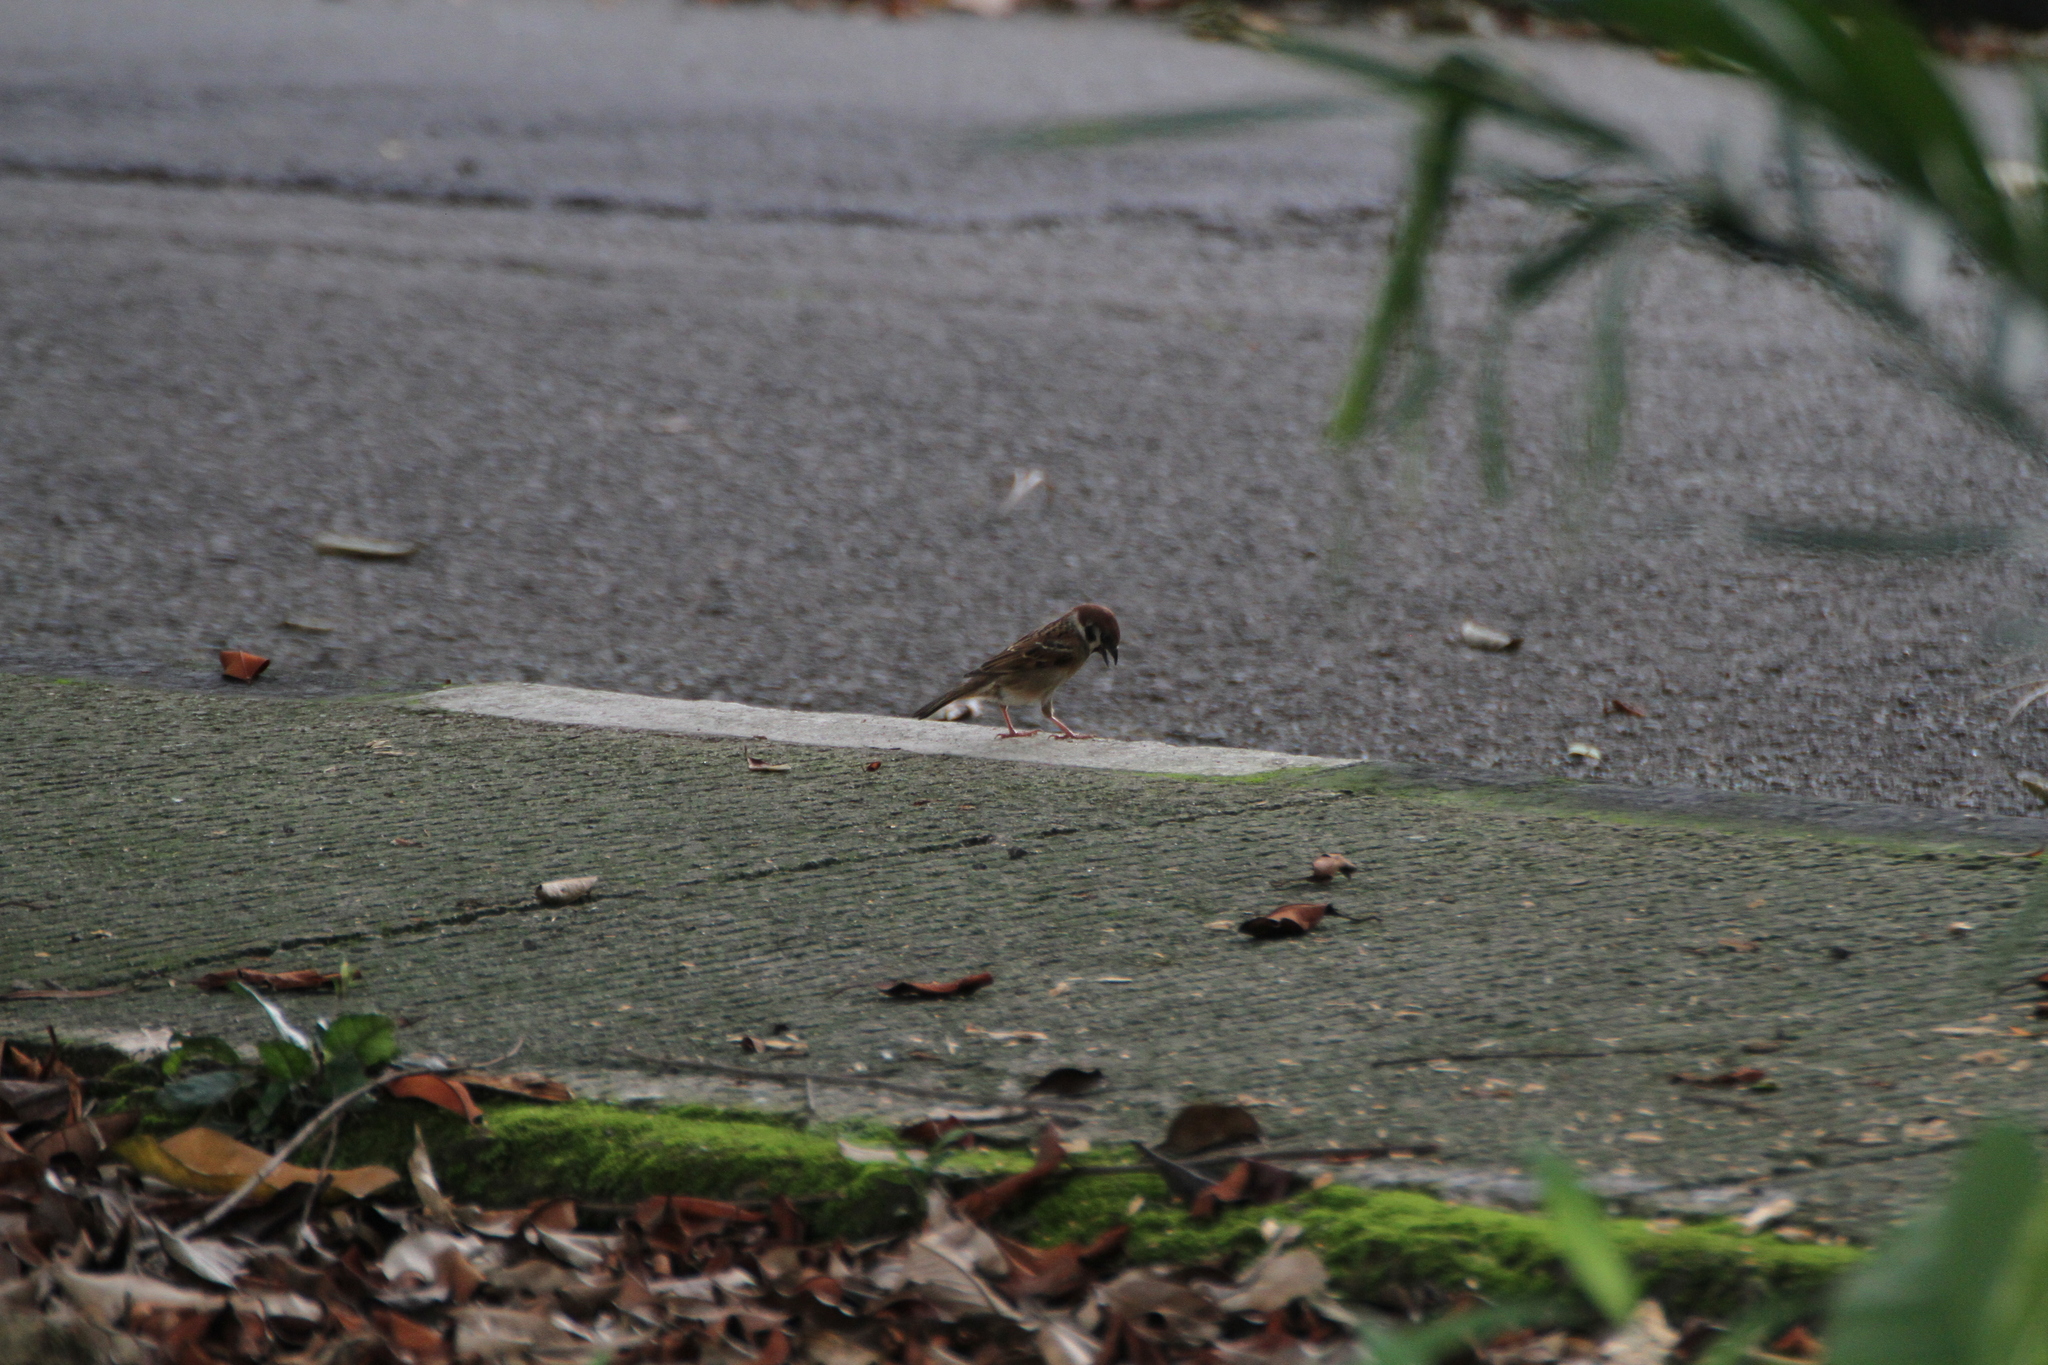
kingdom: Animalia
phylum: Chordata
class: Aves
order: Passeriformes
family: Passeridae
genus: Passer
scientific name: Passer montanus
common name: Eurasian tree sparrow
